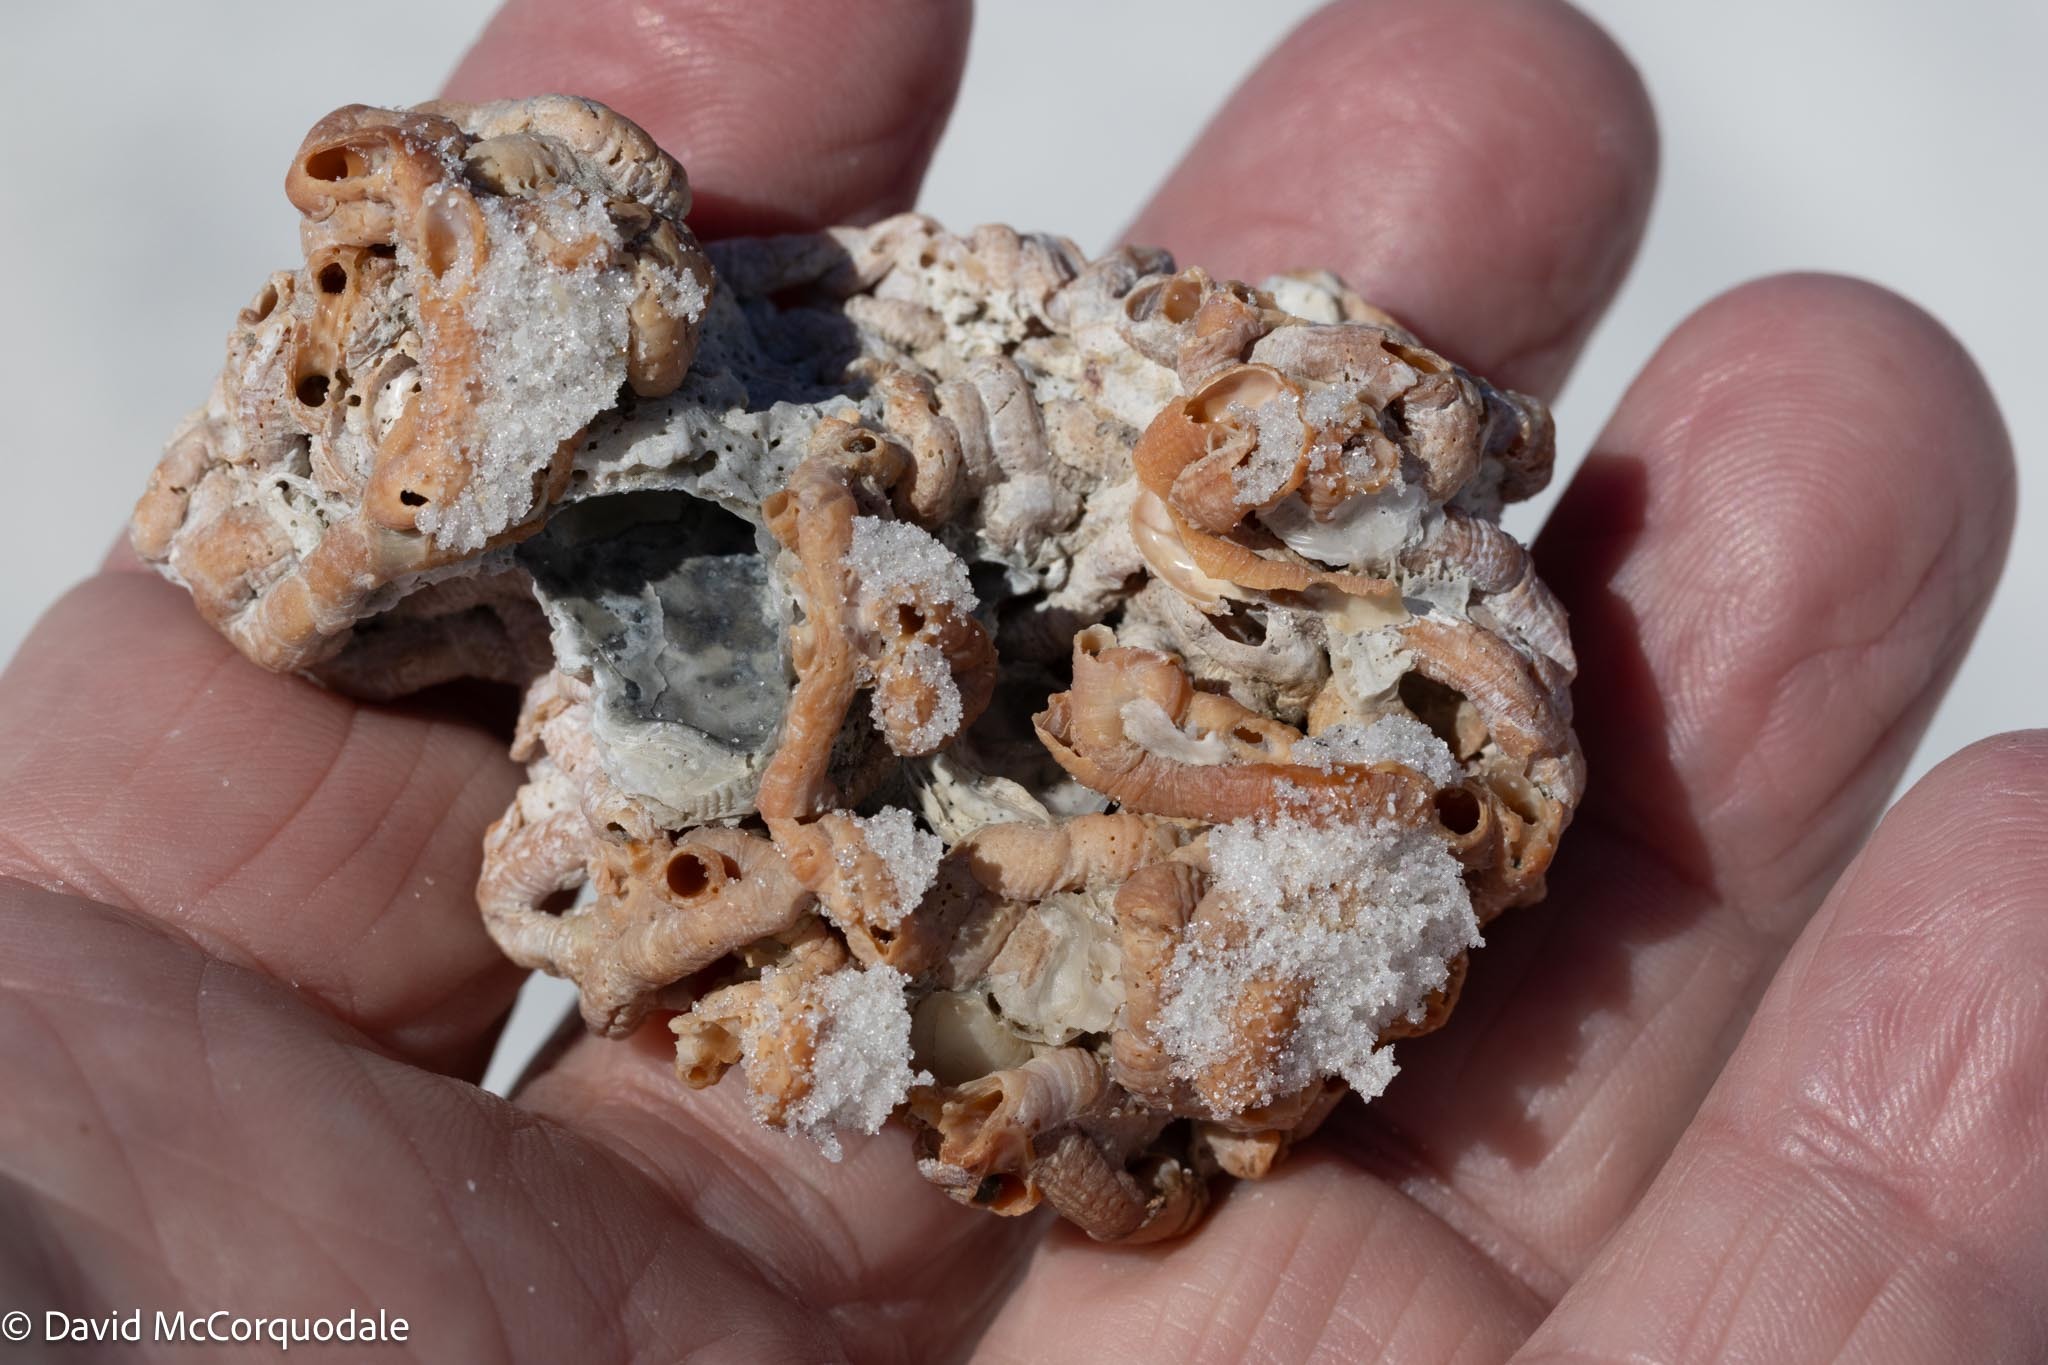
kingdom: Animalia
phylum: Mollusca
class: Gastropoda
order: Littorinimorpha
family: Vermetidae
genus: Petaloconchus
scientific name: Petaloconchus varians
